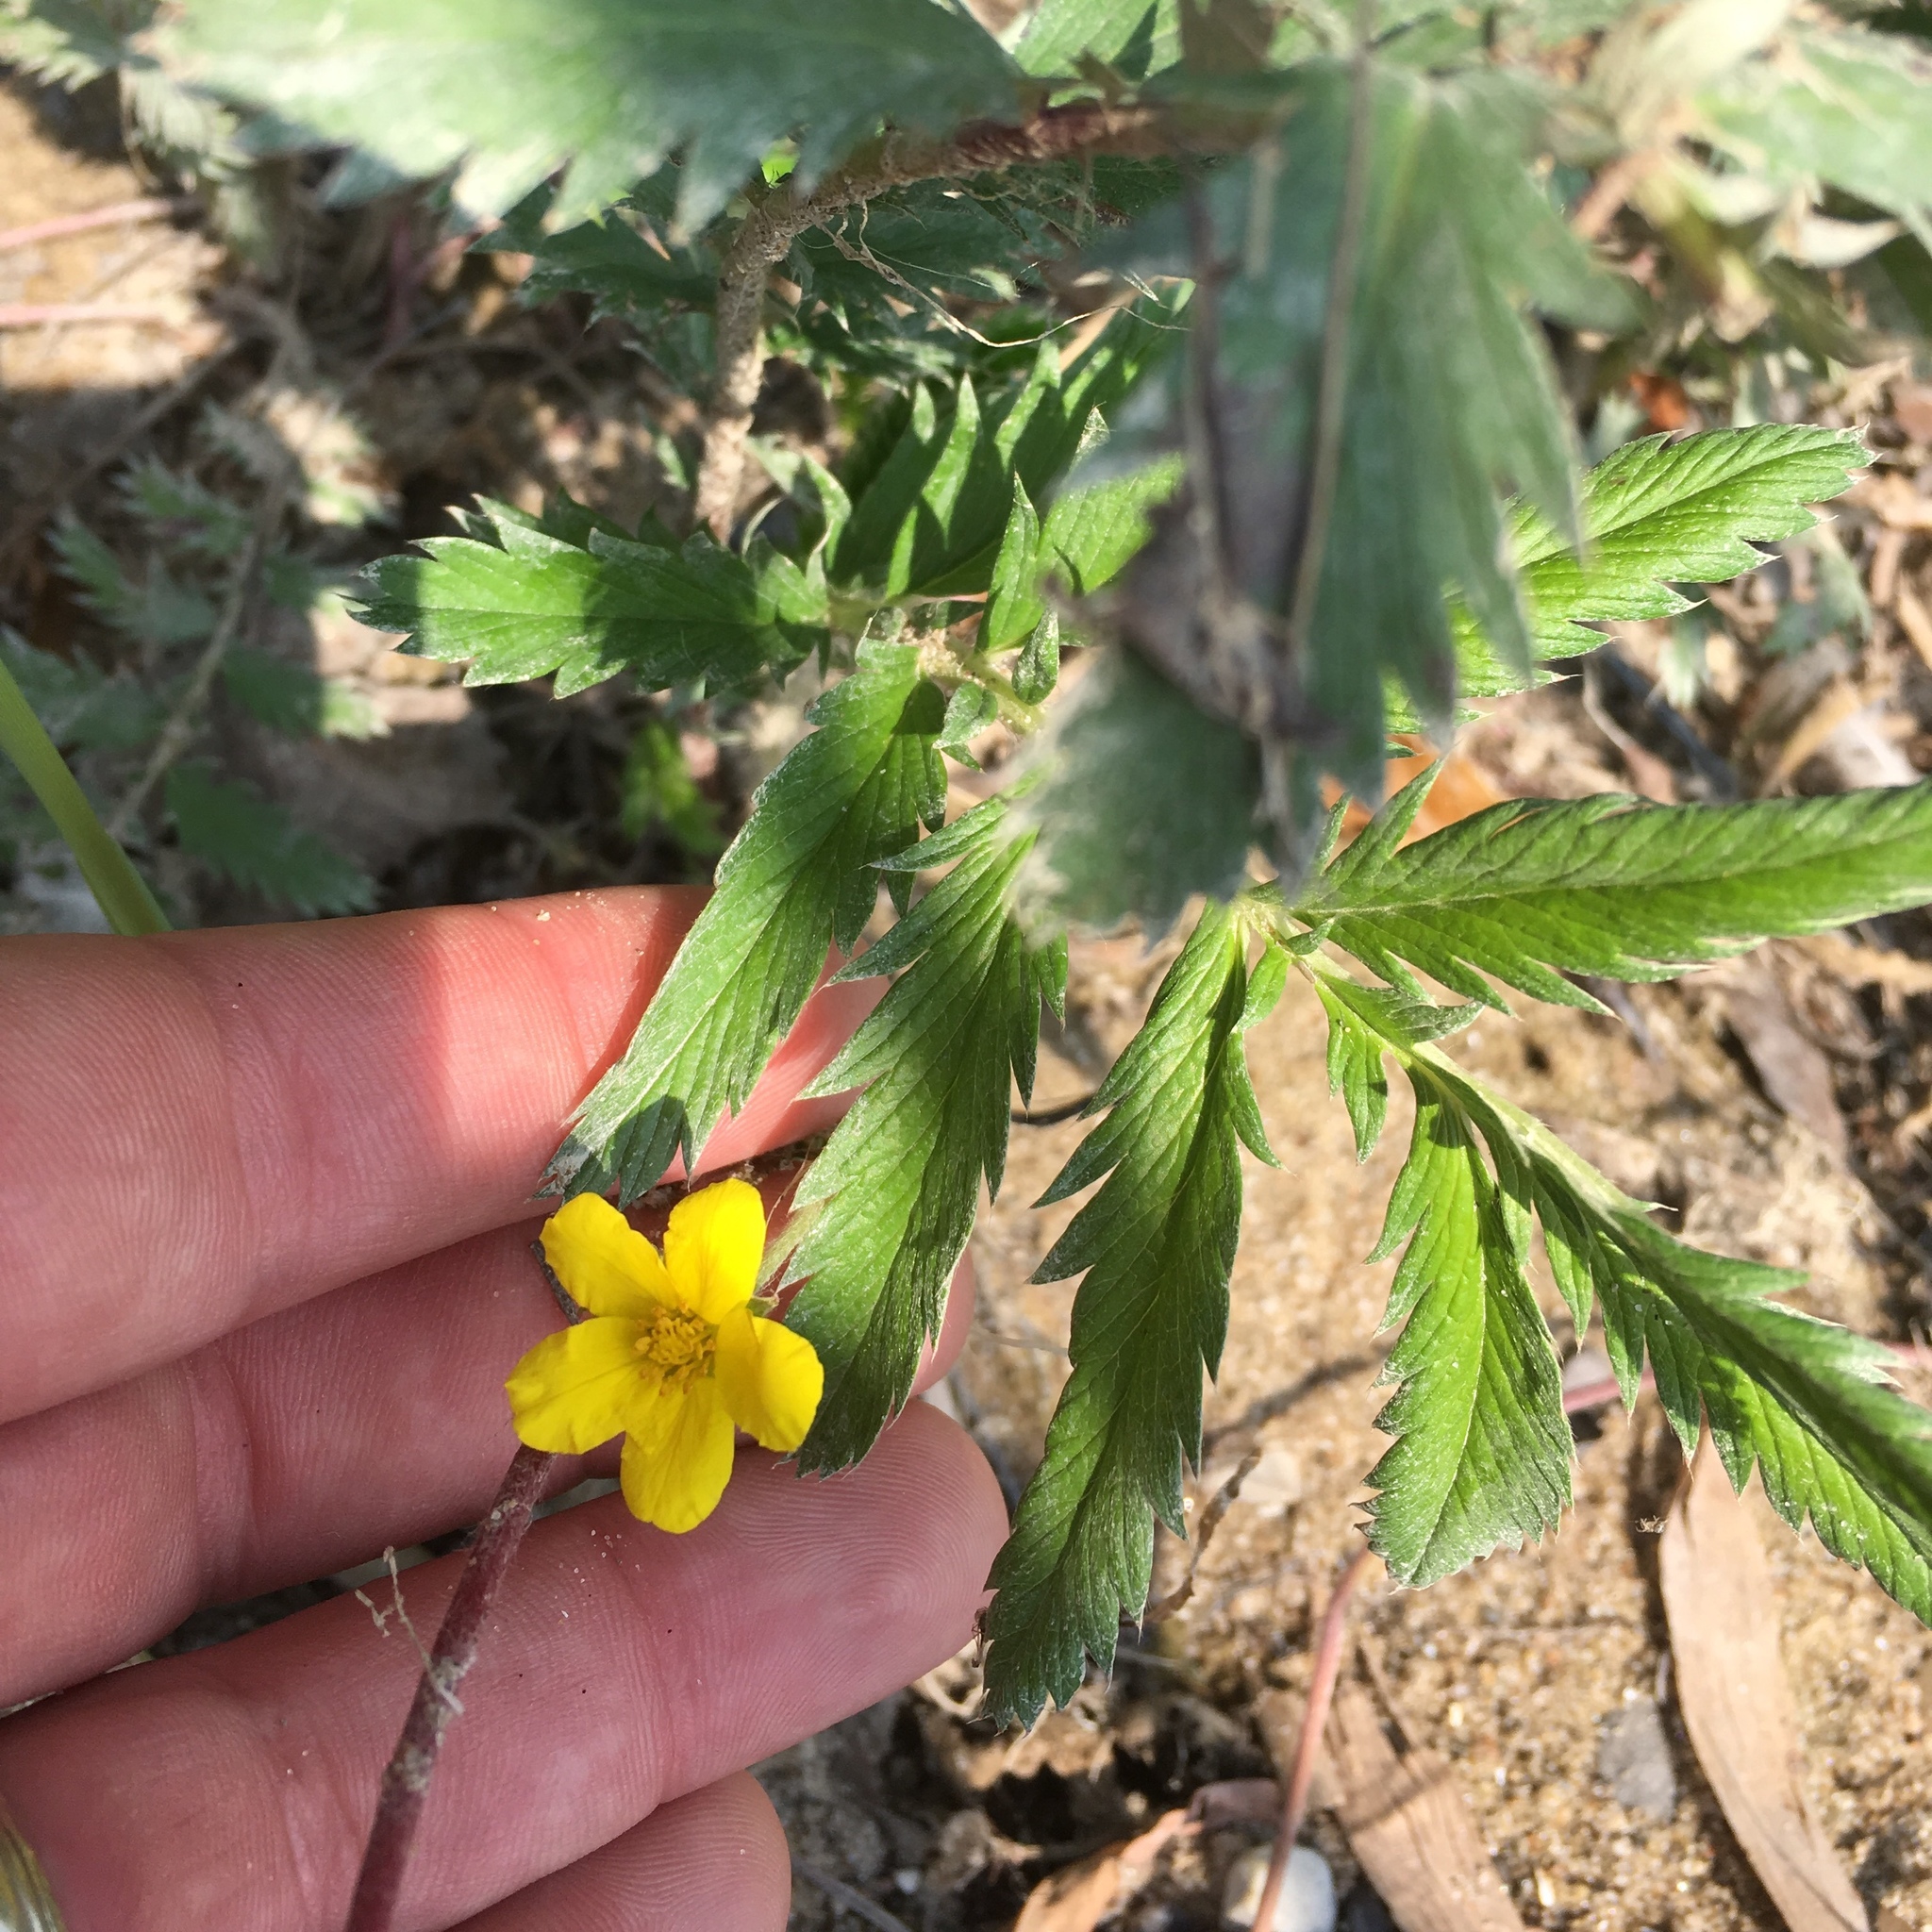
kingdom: Plantae
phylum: Tracheophyta
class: Magnoliopsida
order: Rosales
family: Rosaceae
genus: Argentina
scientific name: Argentina anserina
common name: Common silverweed
